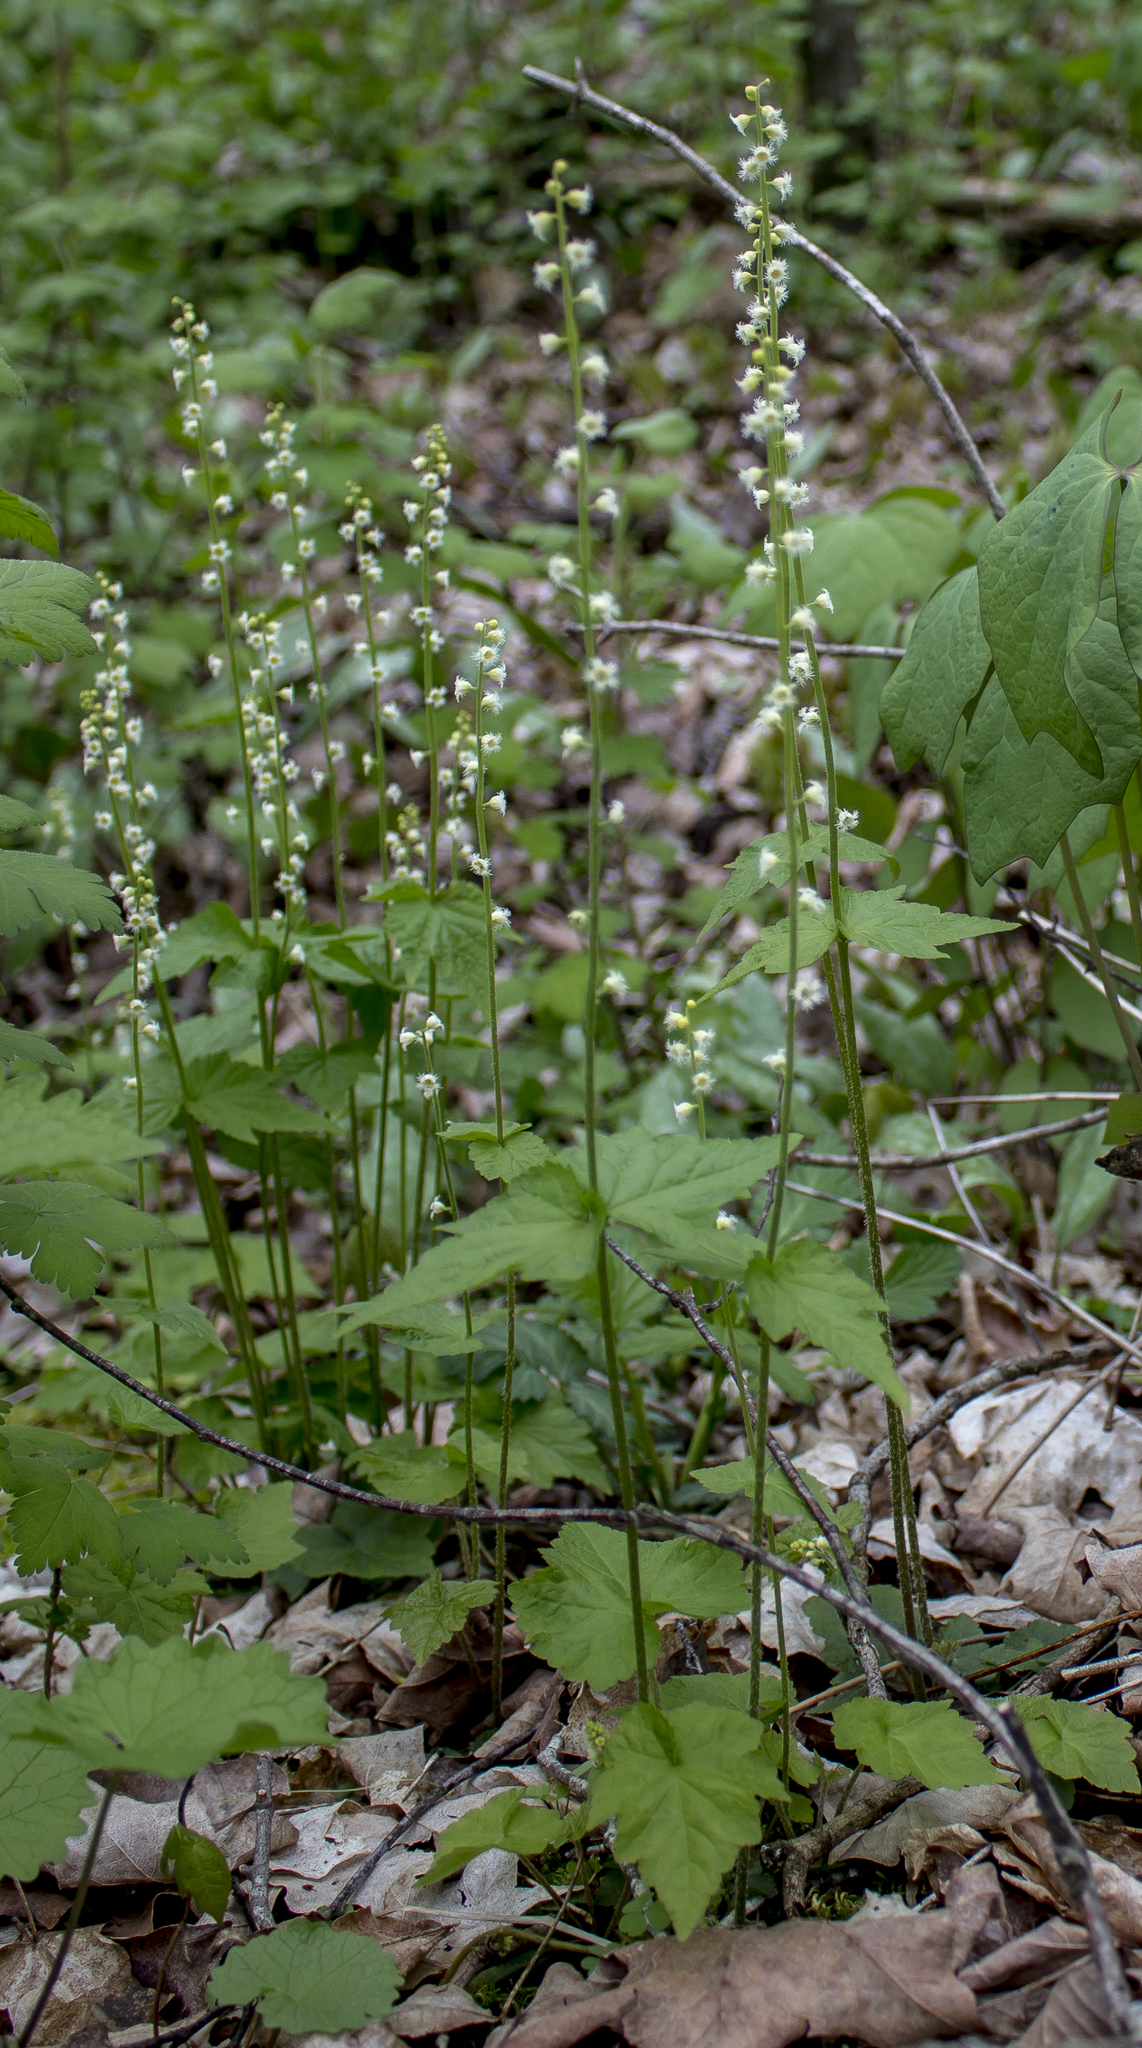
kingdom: Plantae
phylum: Tracheophyta
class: Magnoliopsida
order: Saxifragales
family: Saxifragaceae
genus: Mitella
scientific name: Mitella diphylla
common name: Coolwort
